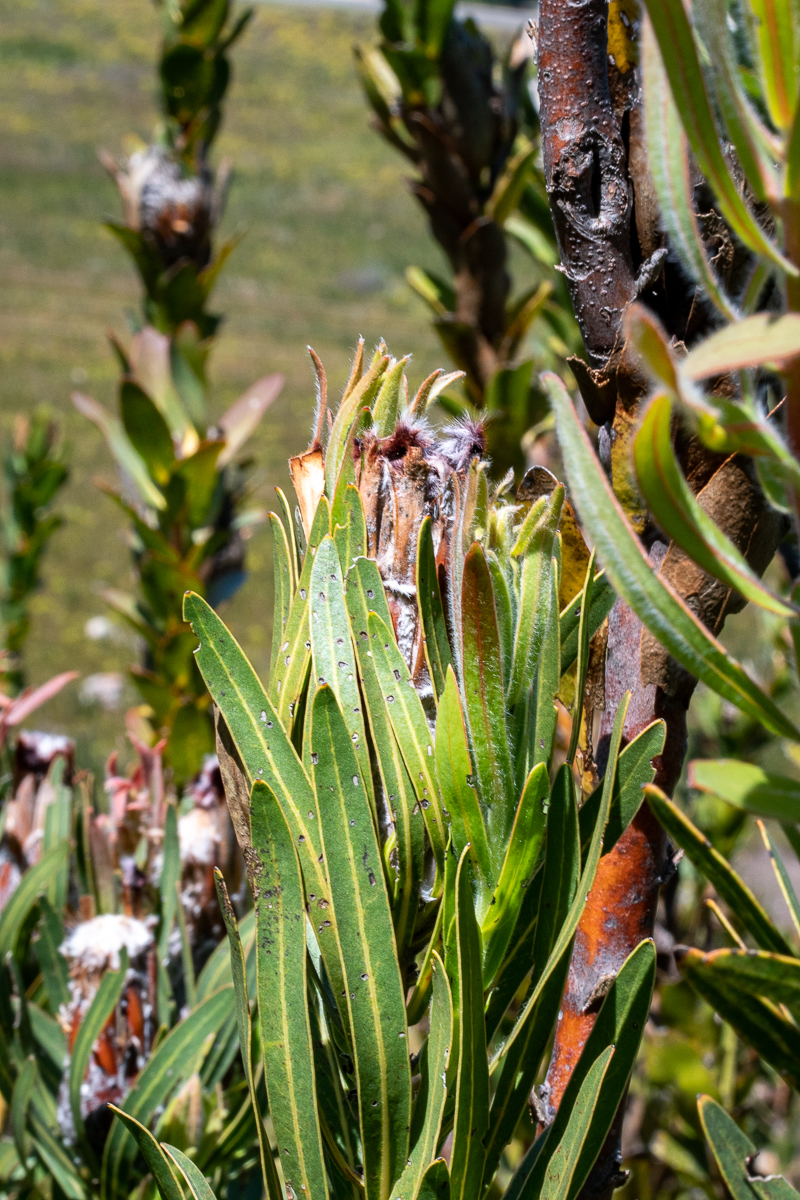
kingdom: Plantae
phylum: Tracheophyta
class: Magnoliopsida
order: Proteales
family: Proteaceae
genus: Protea
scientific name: Protea lepidocarpodendron
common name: Black-bearded protea
